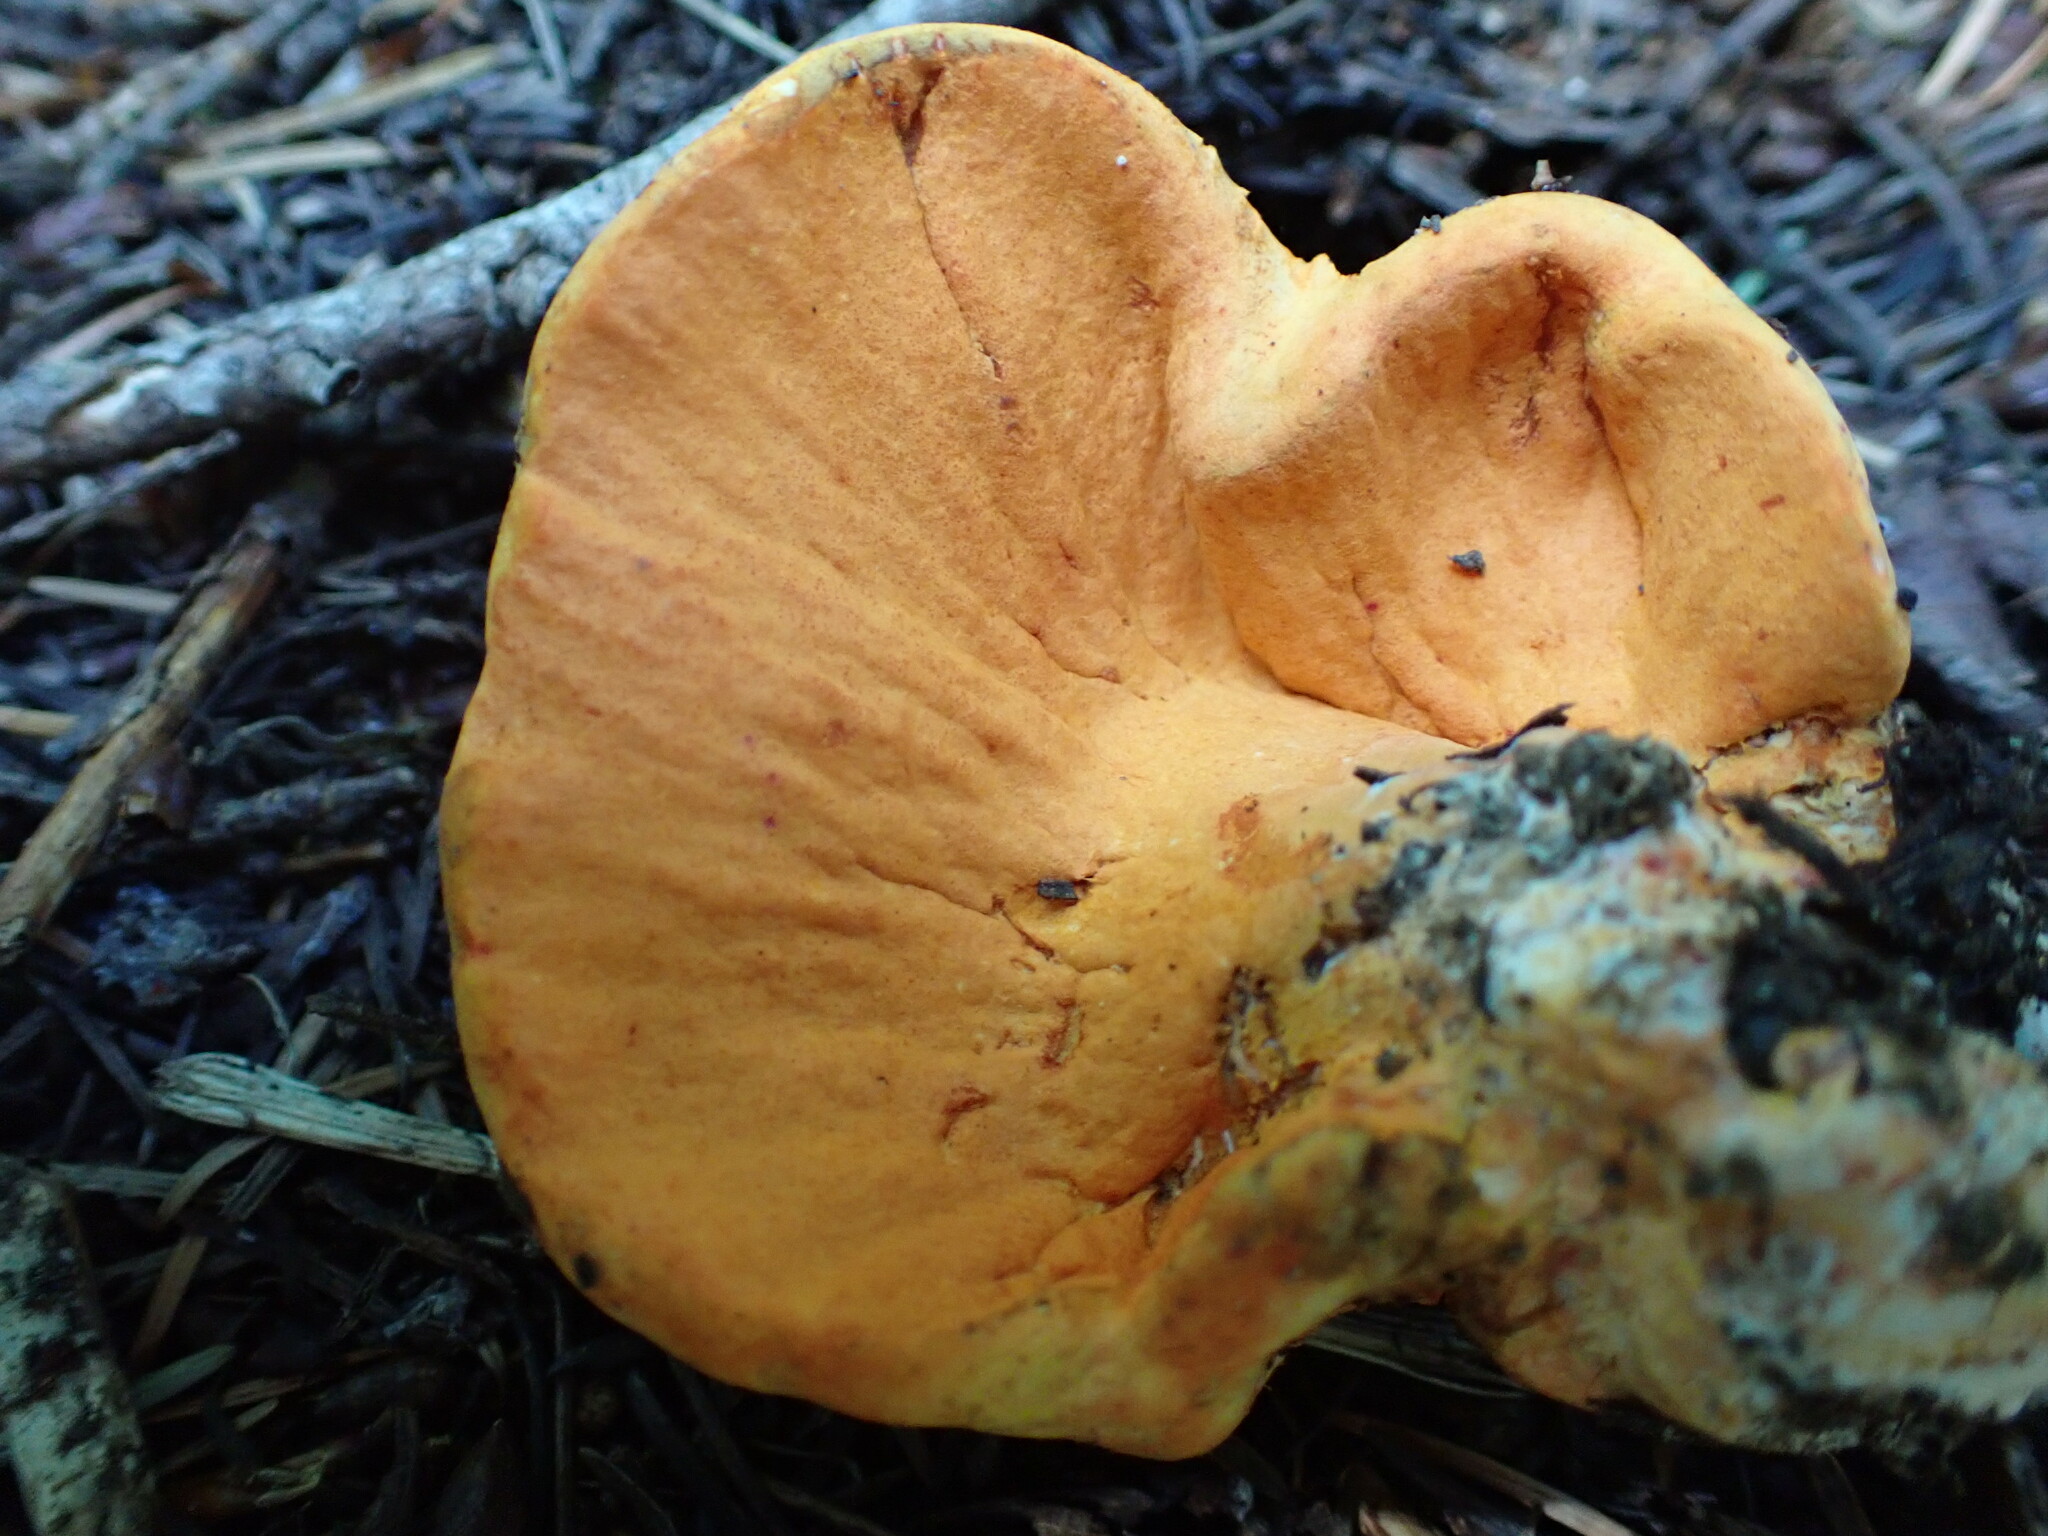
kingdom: Fungi
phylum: Ascomycota
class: Sordariomycetes
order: Hypocreales
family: Hypocreaceae
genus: Hypomyces
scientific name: Hypomyces lactifluorum
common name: Lobster mushroom
